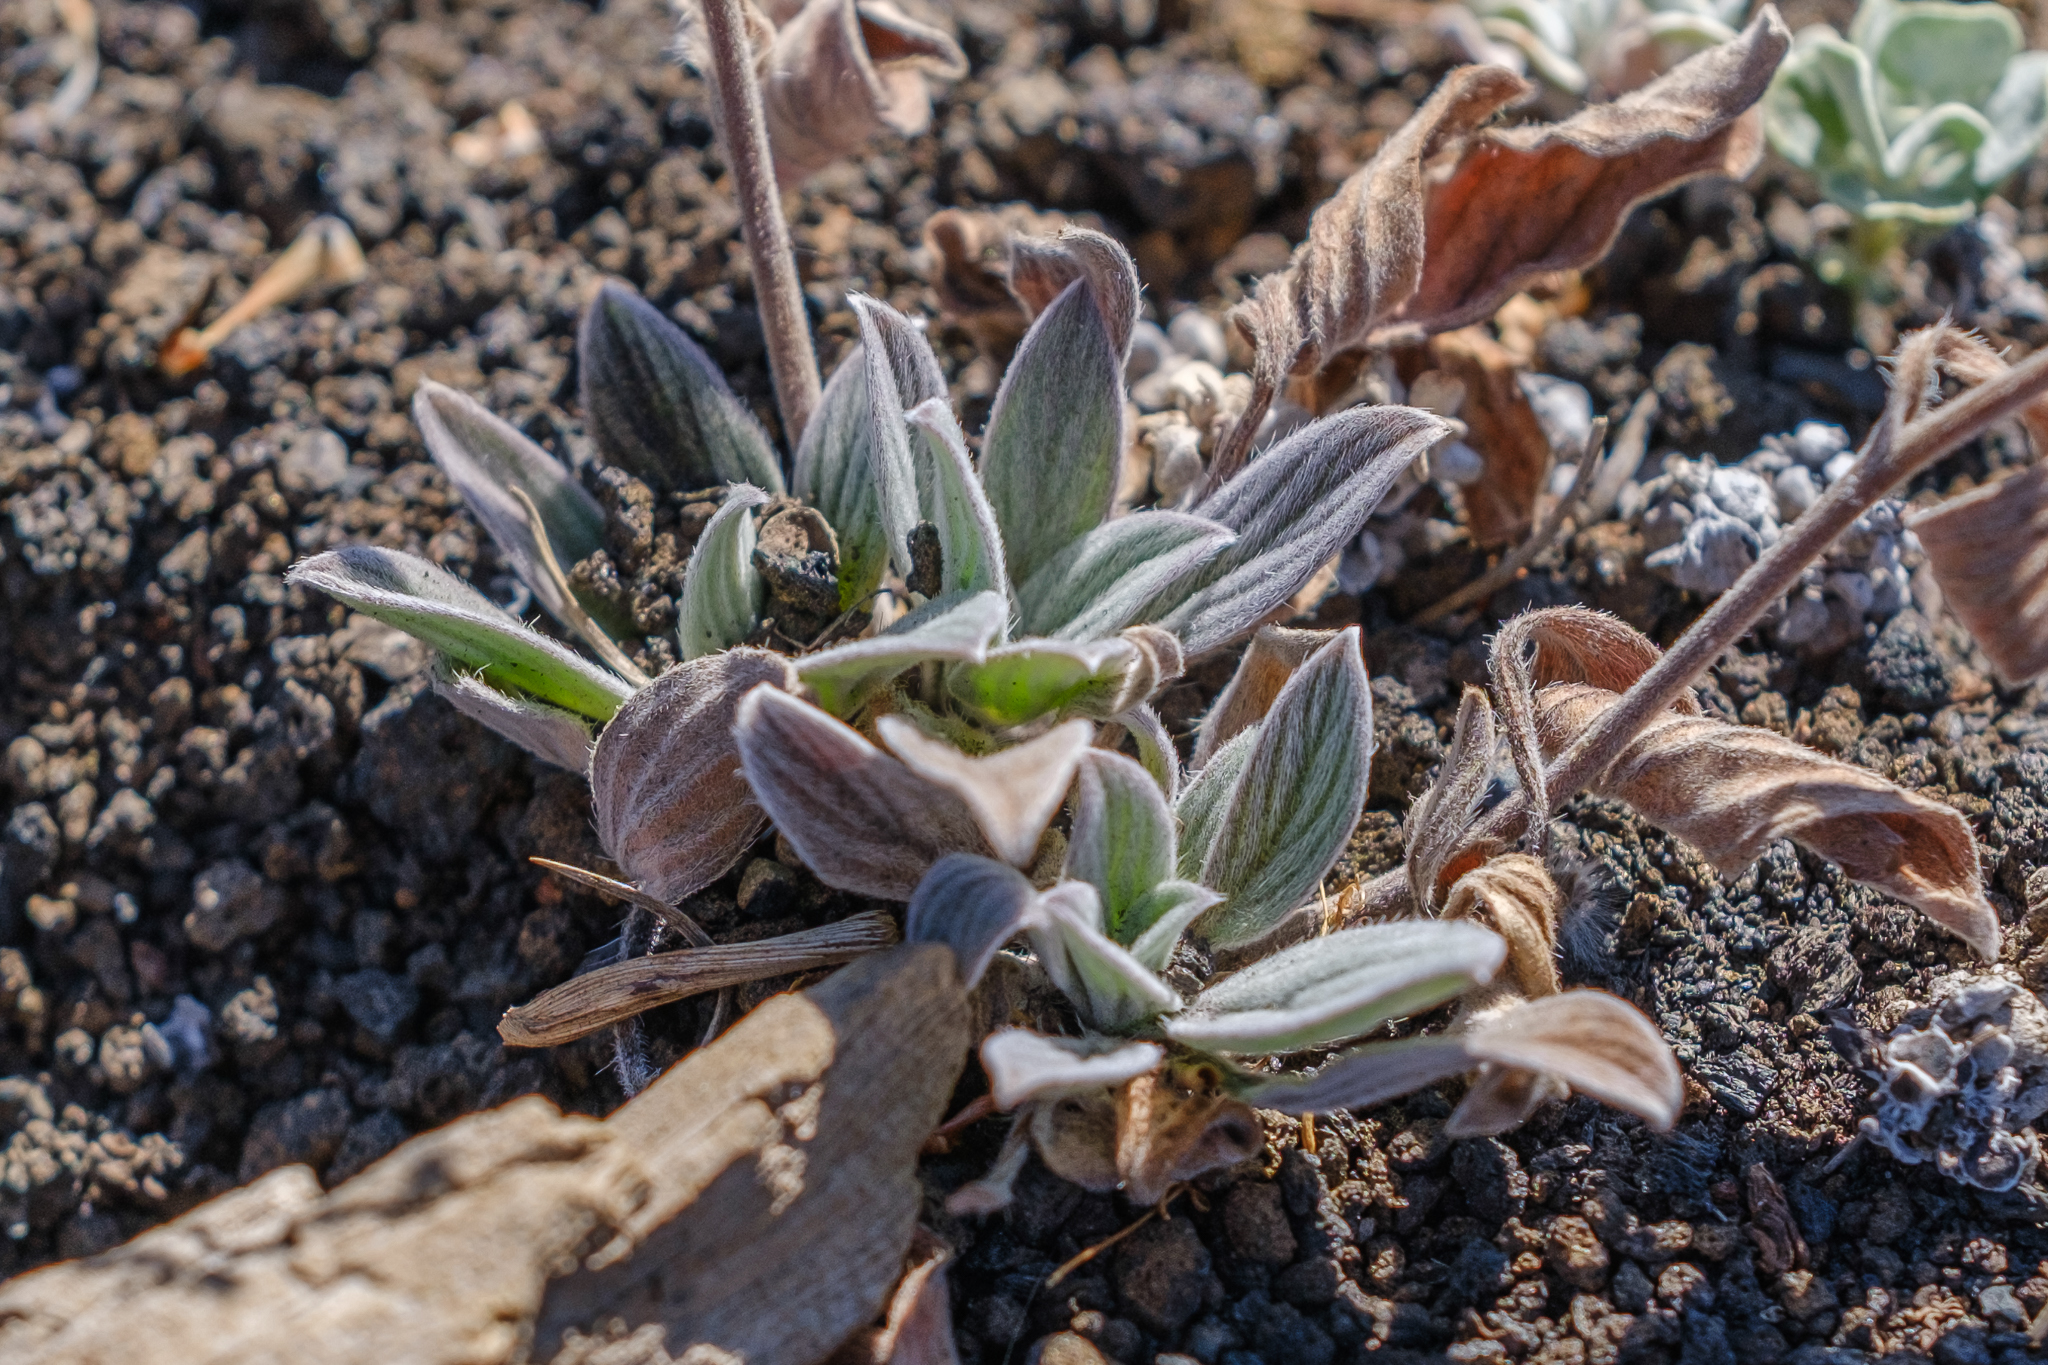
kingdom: Plantae
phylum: Tracheophyta
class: Magnoliopsida
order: Boraginales
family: Hydrophyllaceae
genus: Phacelia
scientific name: Phacelia hastata
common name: Silver-leaved phacelia
